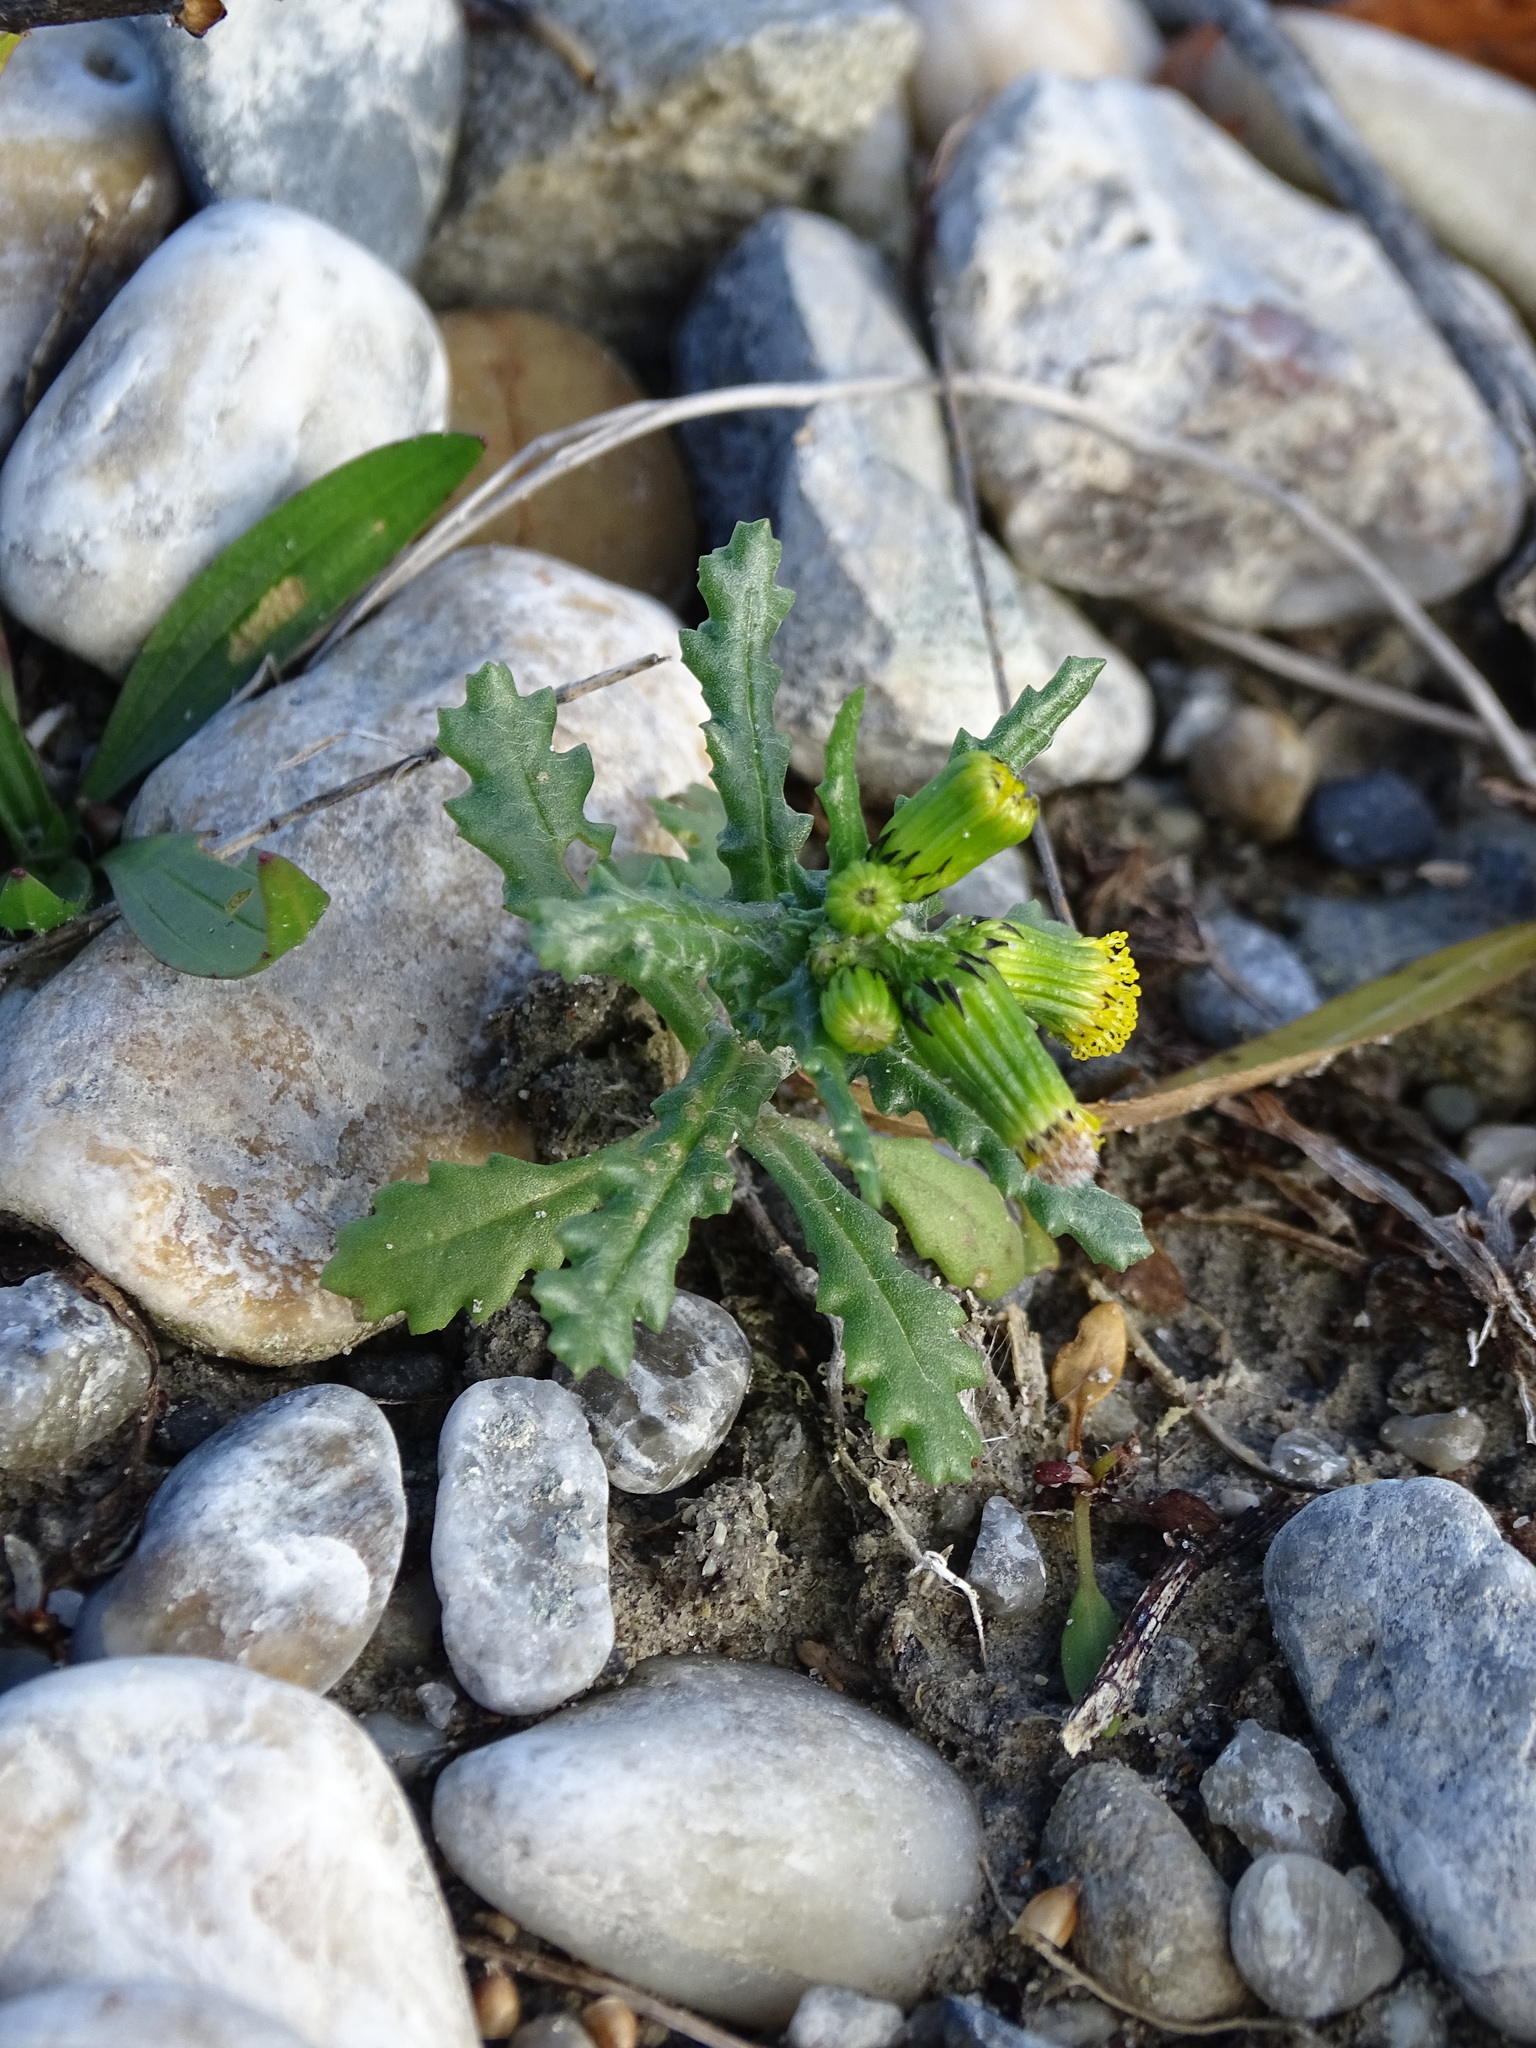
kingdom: Plantae
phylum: Tracheophyta
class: Magnoliopsida
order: Asterales
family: Asteraceae
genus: Senecio
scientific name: Senecio vulgaris
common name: Old-man-in-the-spring
